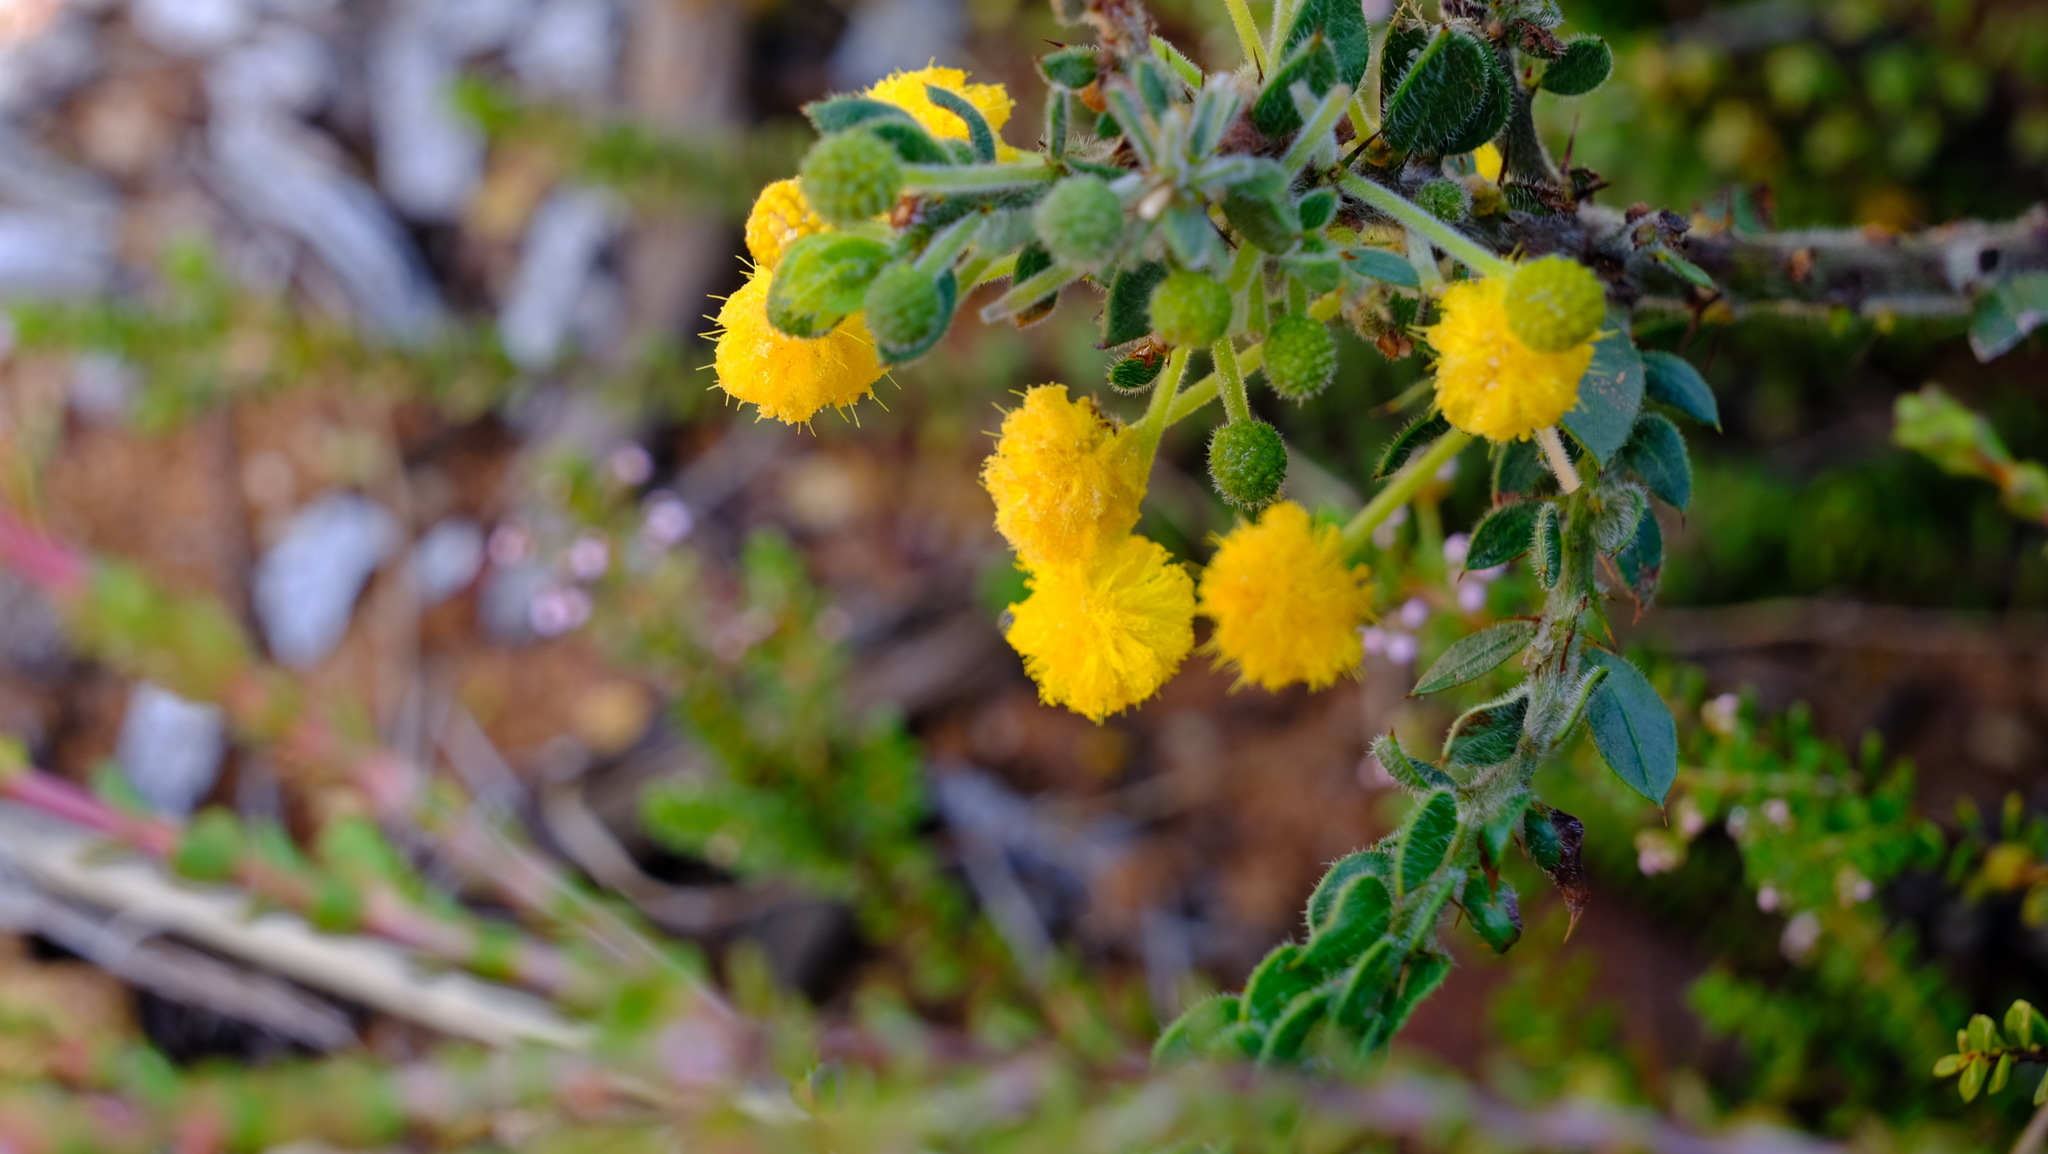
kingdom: Plantae
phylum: Tracheophyta
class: Magnoliopsida
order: Fabales
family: Fabaceae
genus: Acacia
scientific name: Acacia idiomorpha
